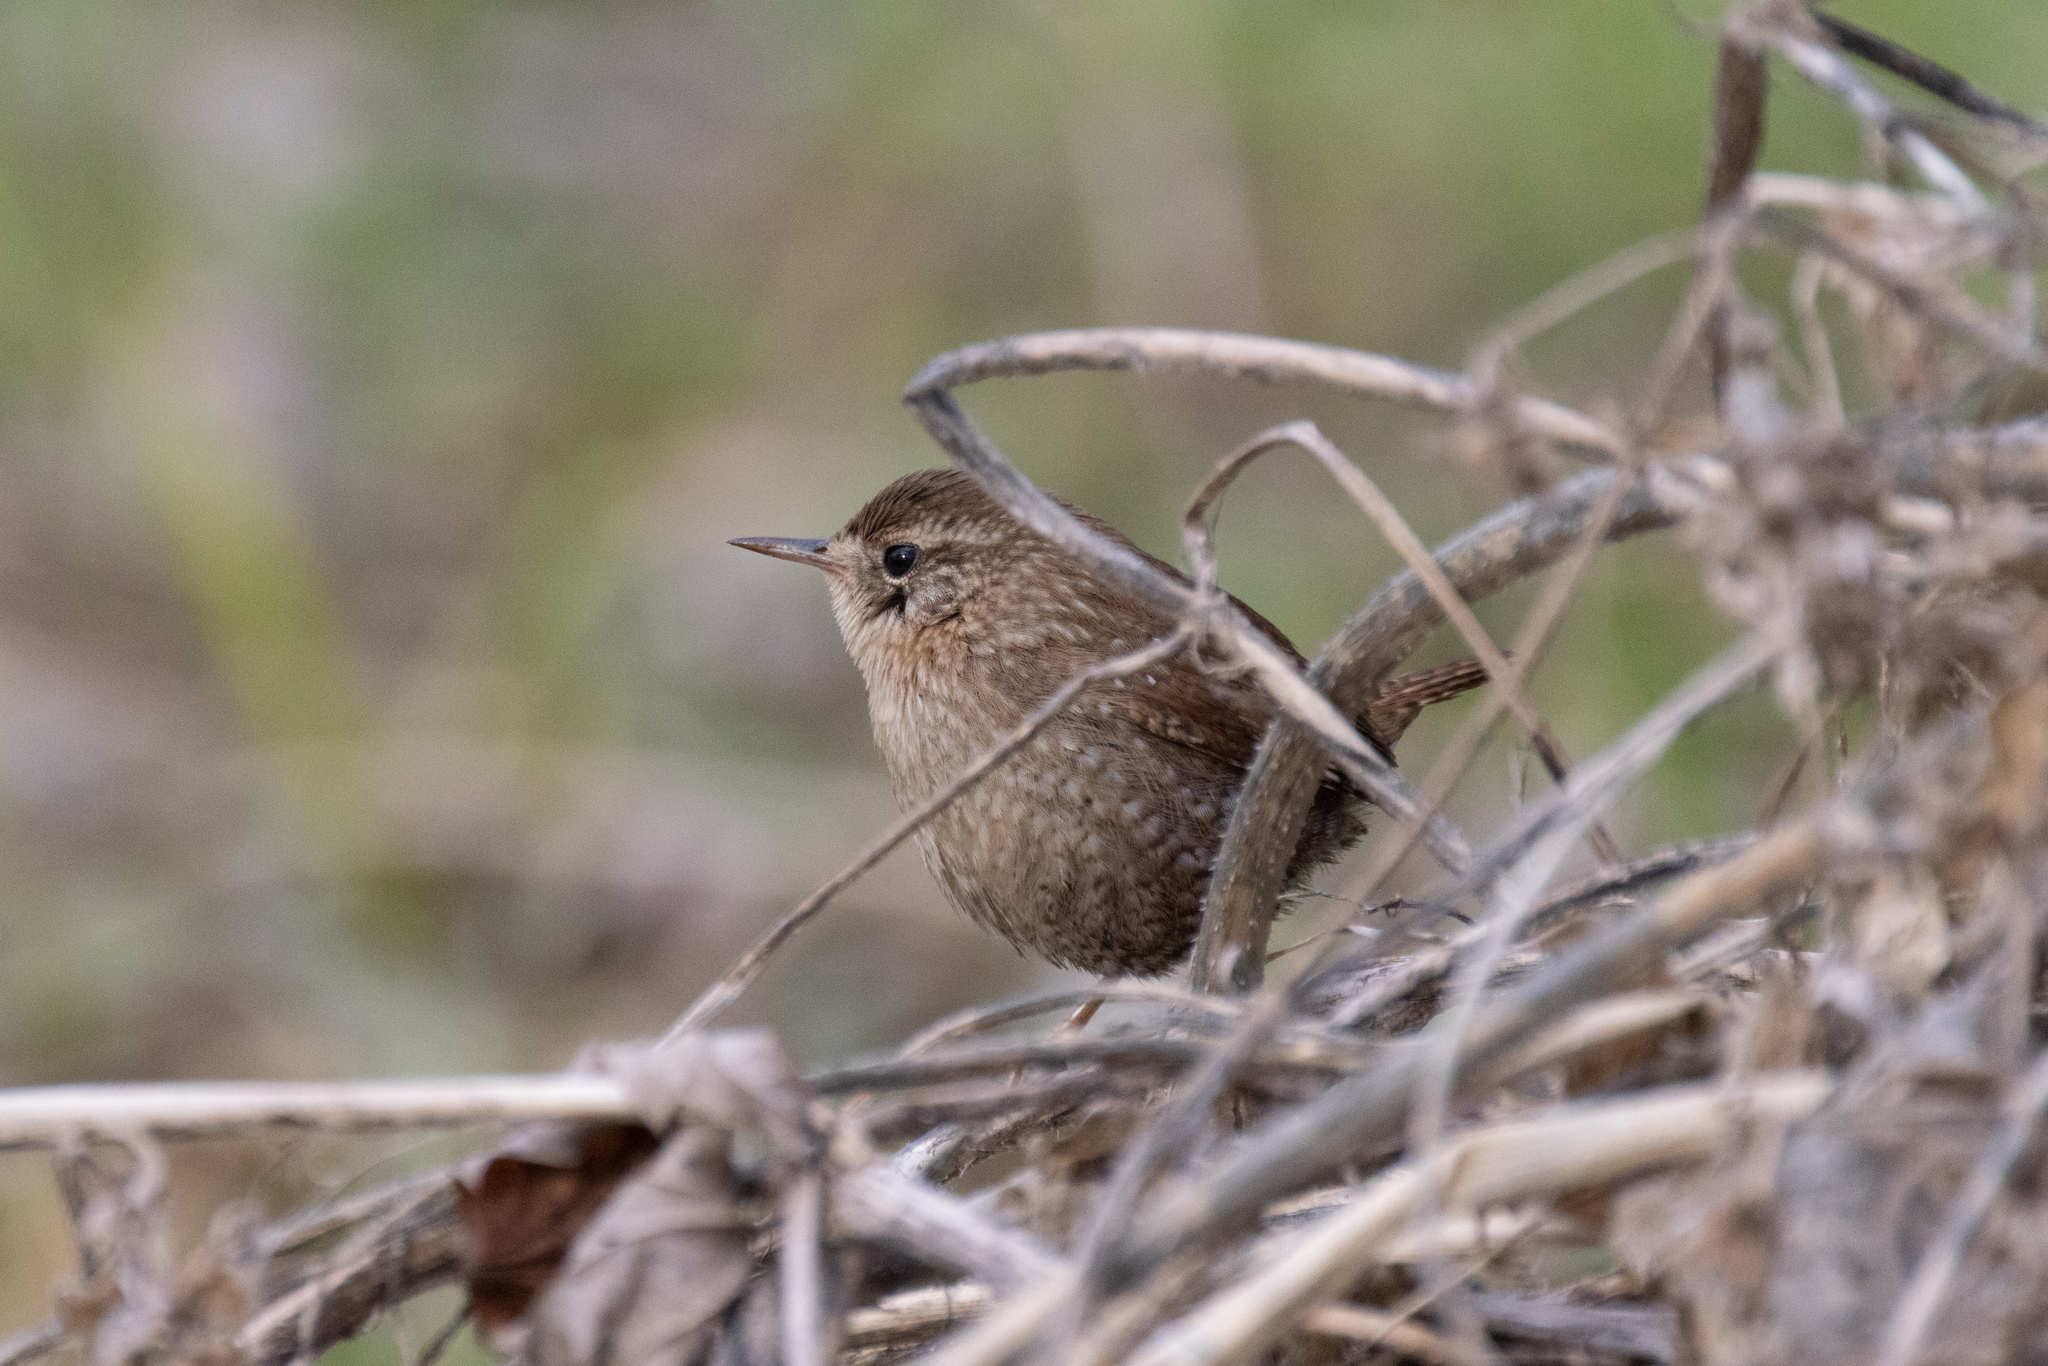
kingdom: Animalia
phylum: Chordata
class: Aves
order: Passeriformes
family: Troglodytidae
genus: Troglodytes
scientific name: Troglodytes hiemalis
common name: Winter wren
